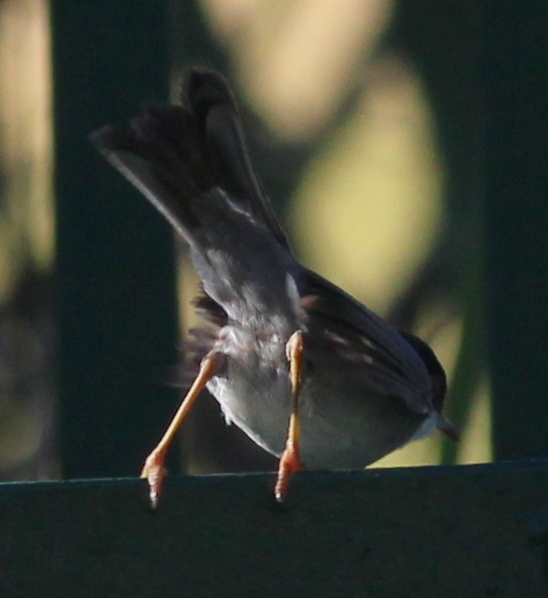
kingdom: Animalia
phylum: Chordata
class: Aves
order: Passeriformes
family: Sylviidae
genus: Curruca
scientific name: Curruca melanocephala
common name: Sardinian warbler
